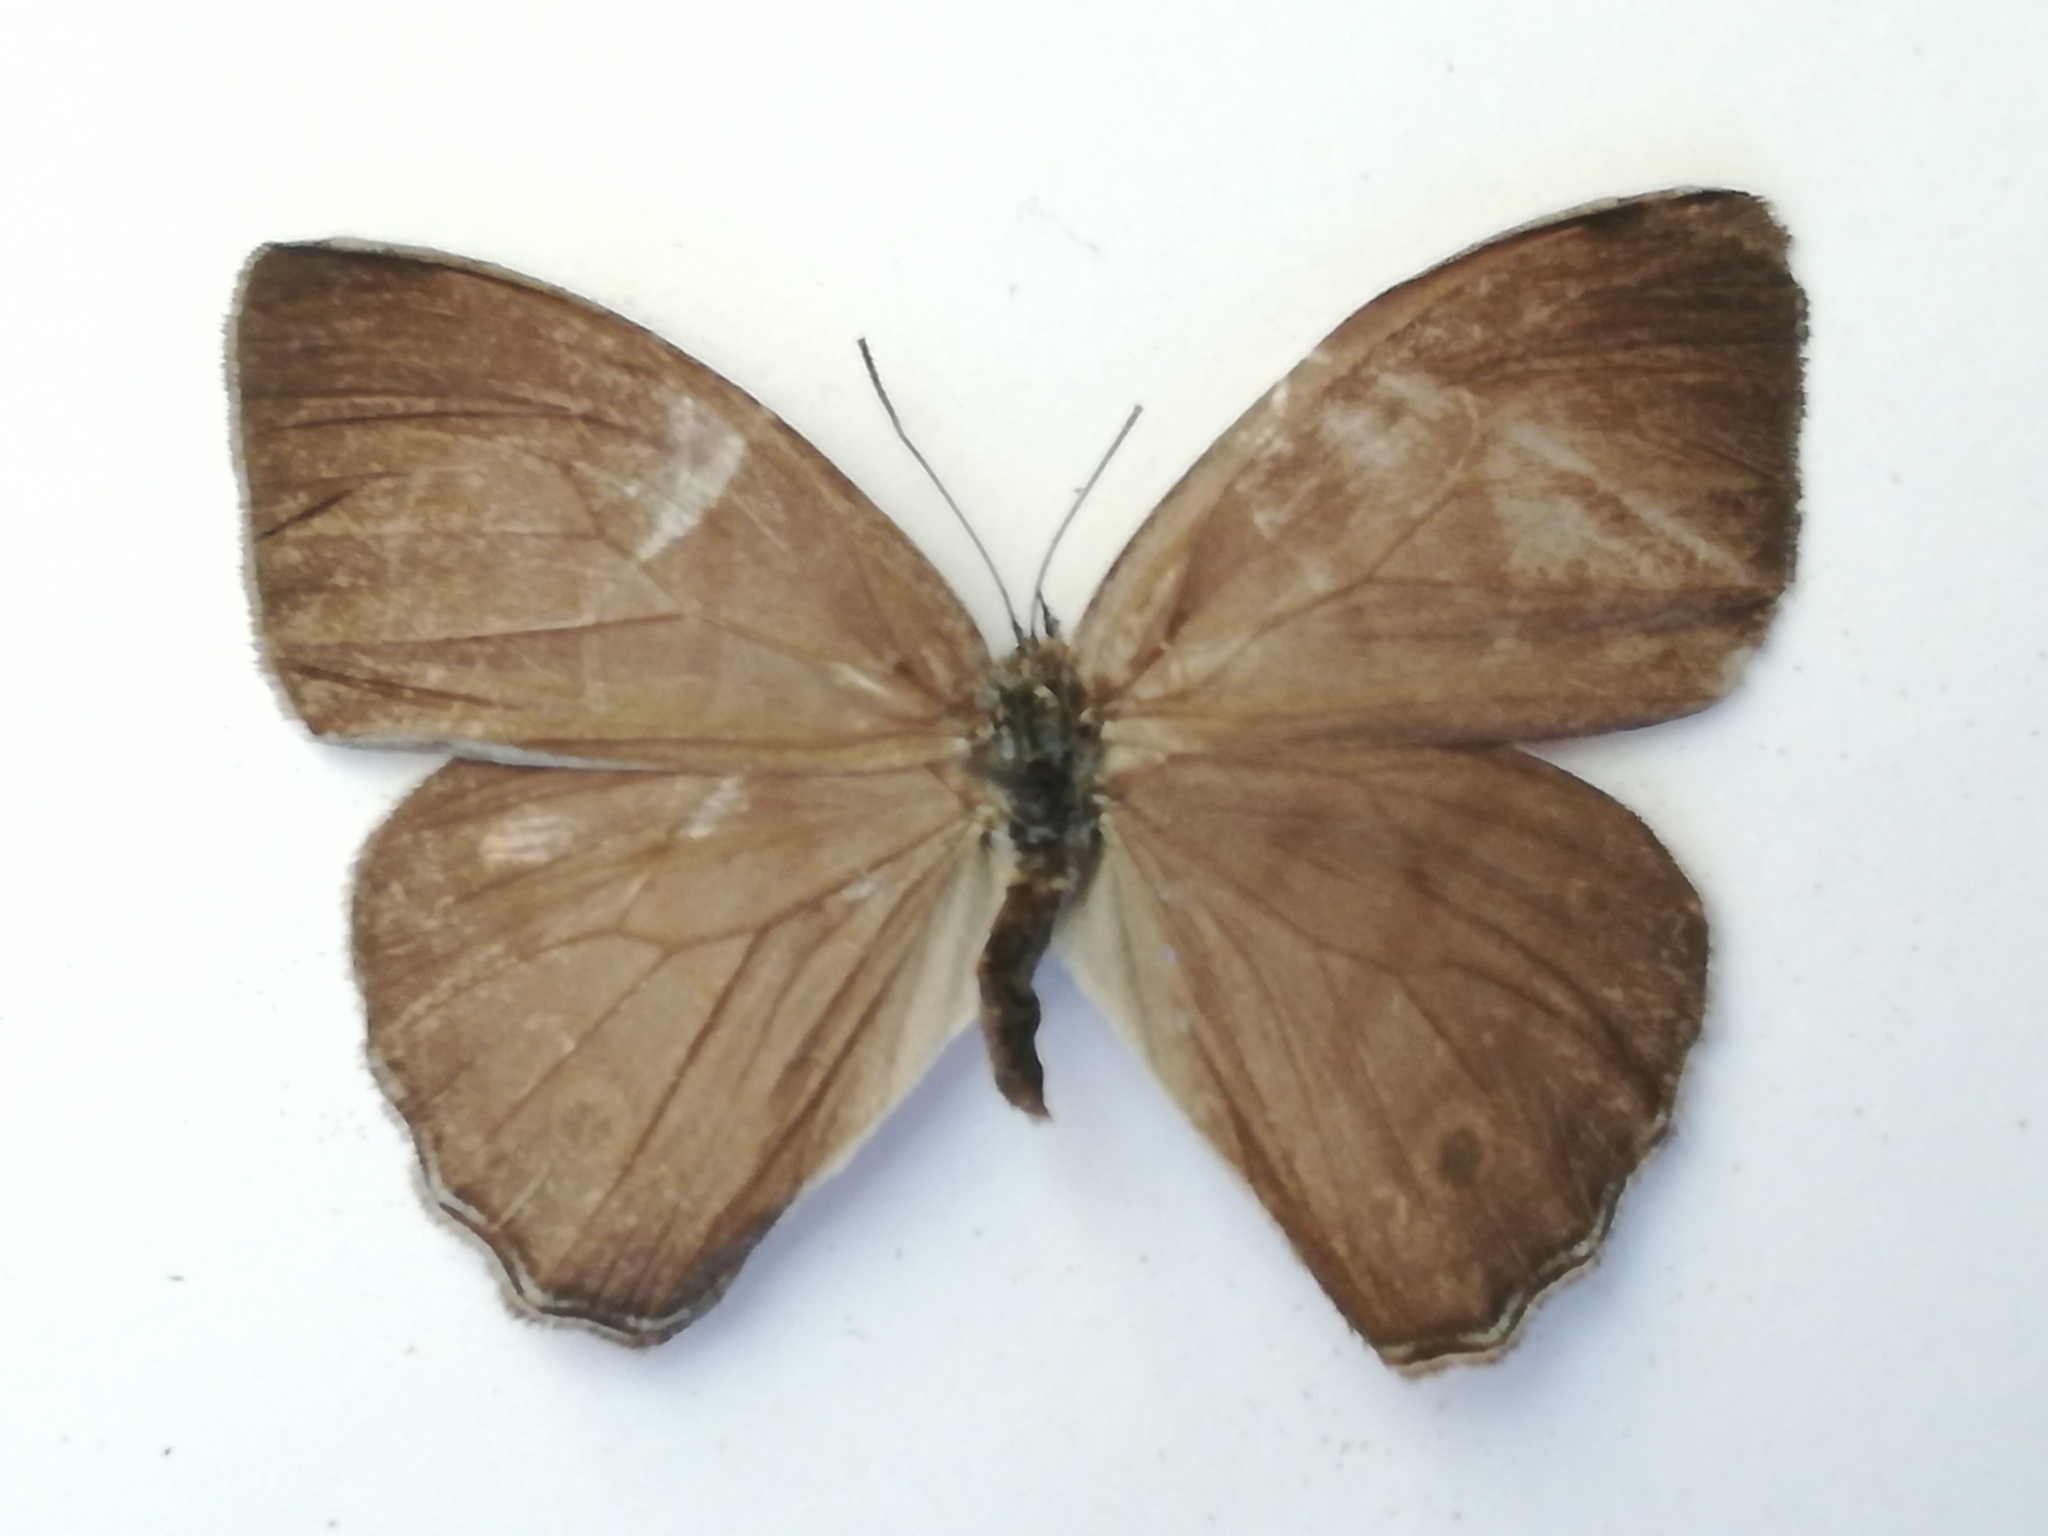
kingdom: Animalia
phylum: Arthropoda
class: Insecta
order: Lepidoptera
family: Nymphalidae
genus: Cepheuptychia
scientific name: Cepheuptychia glaucina
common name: Dirty-blue satyr
